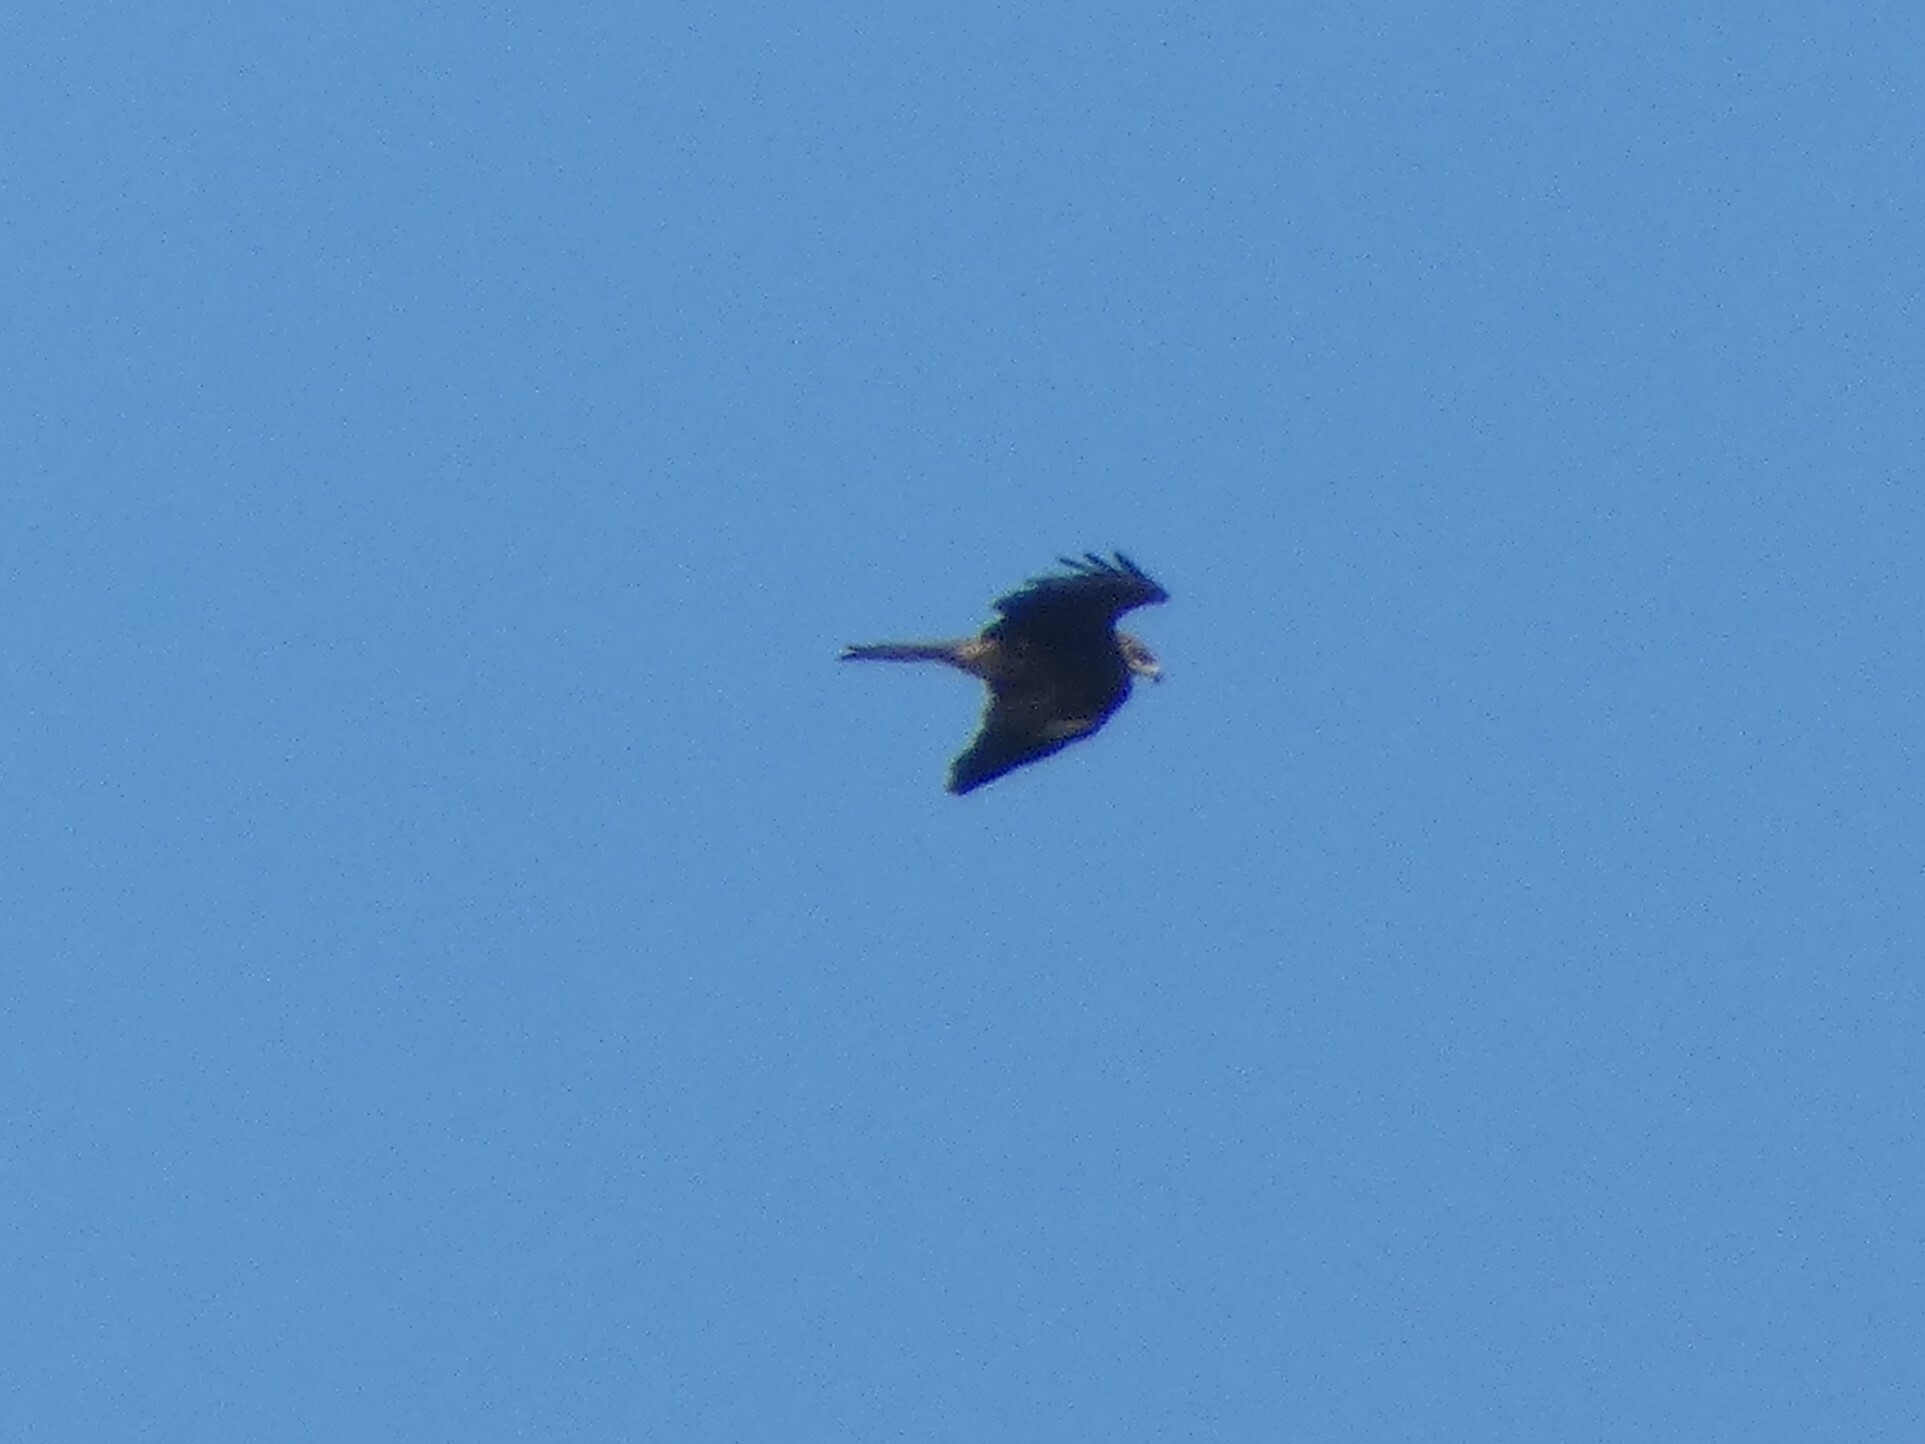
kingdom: Animalia
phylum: Chordata
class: Aves
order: Accipitriformes
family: Accipitridae
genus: Milvus
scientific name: Milvus migrans
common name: Black kite
